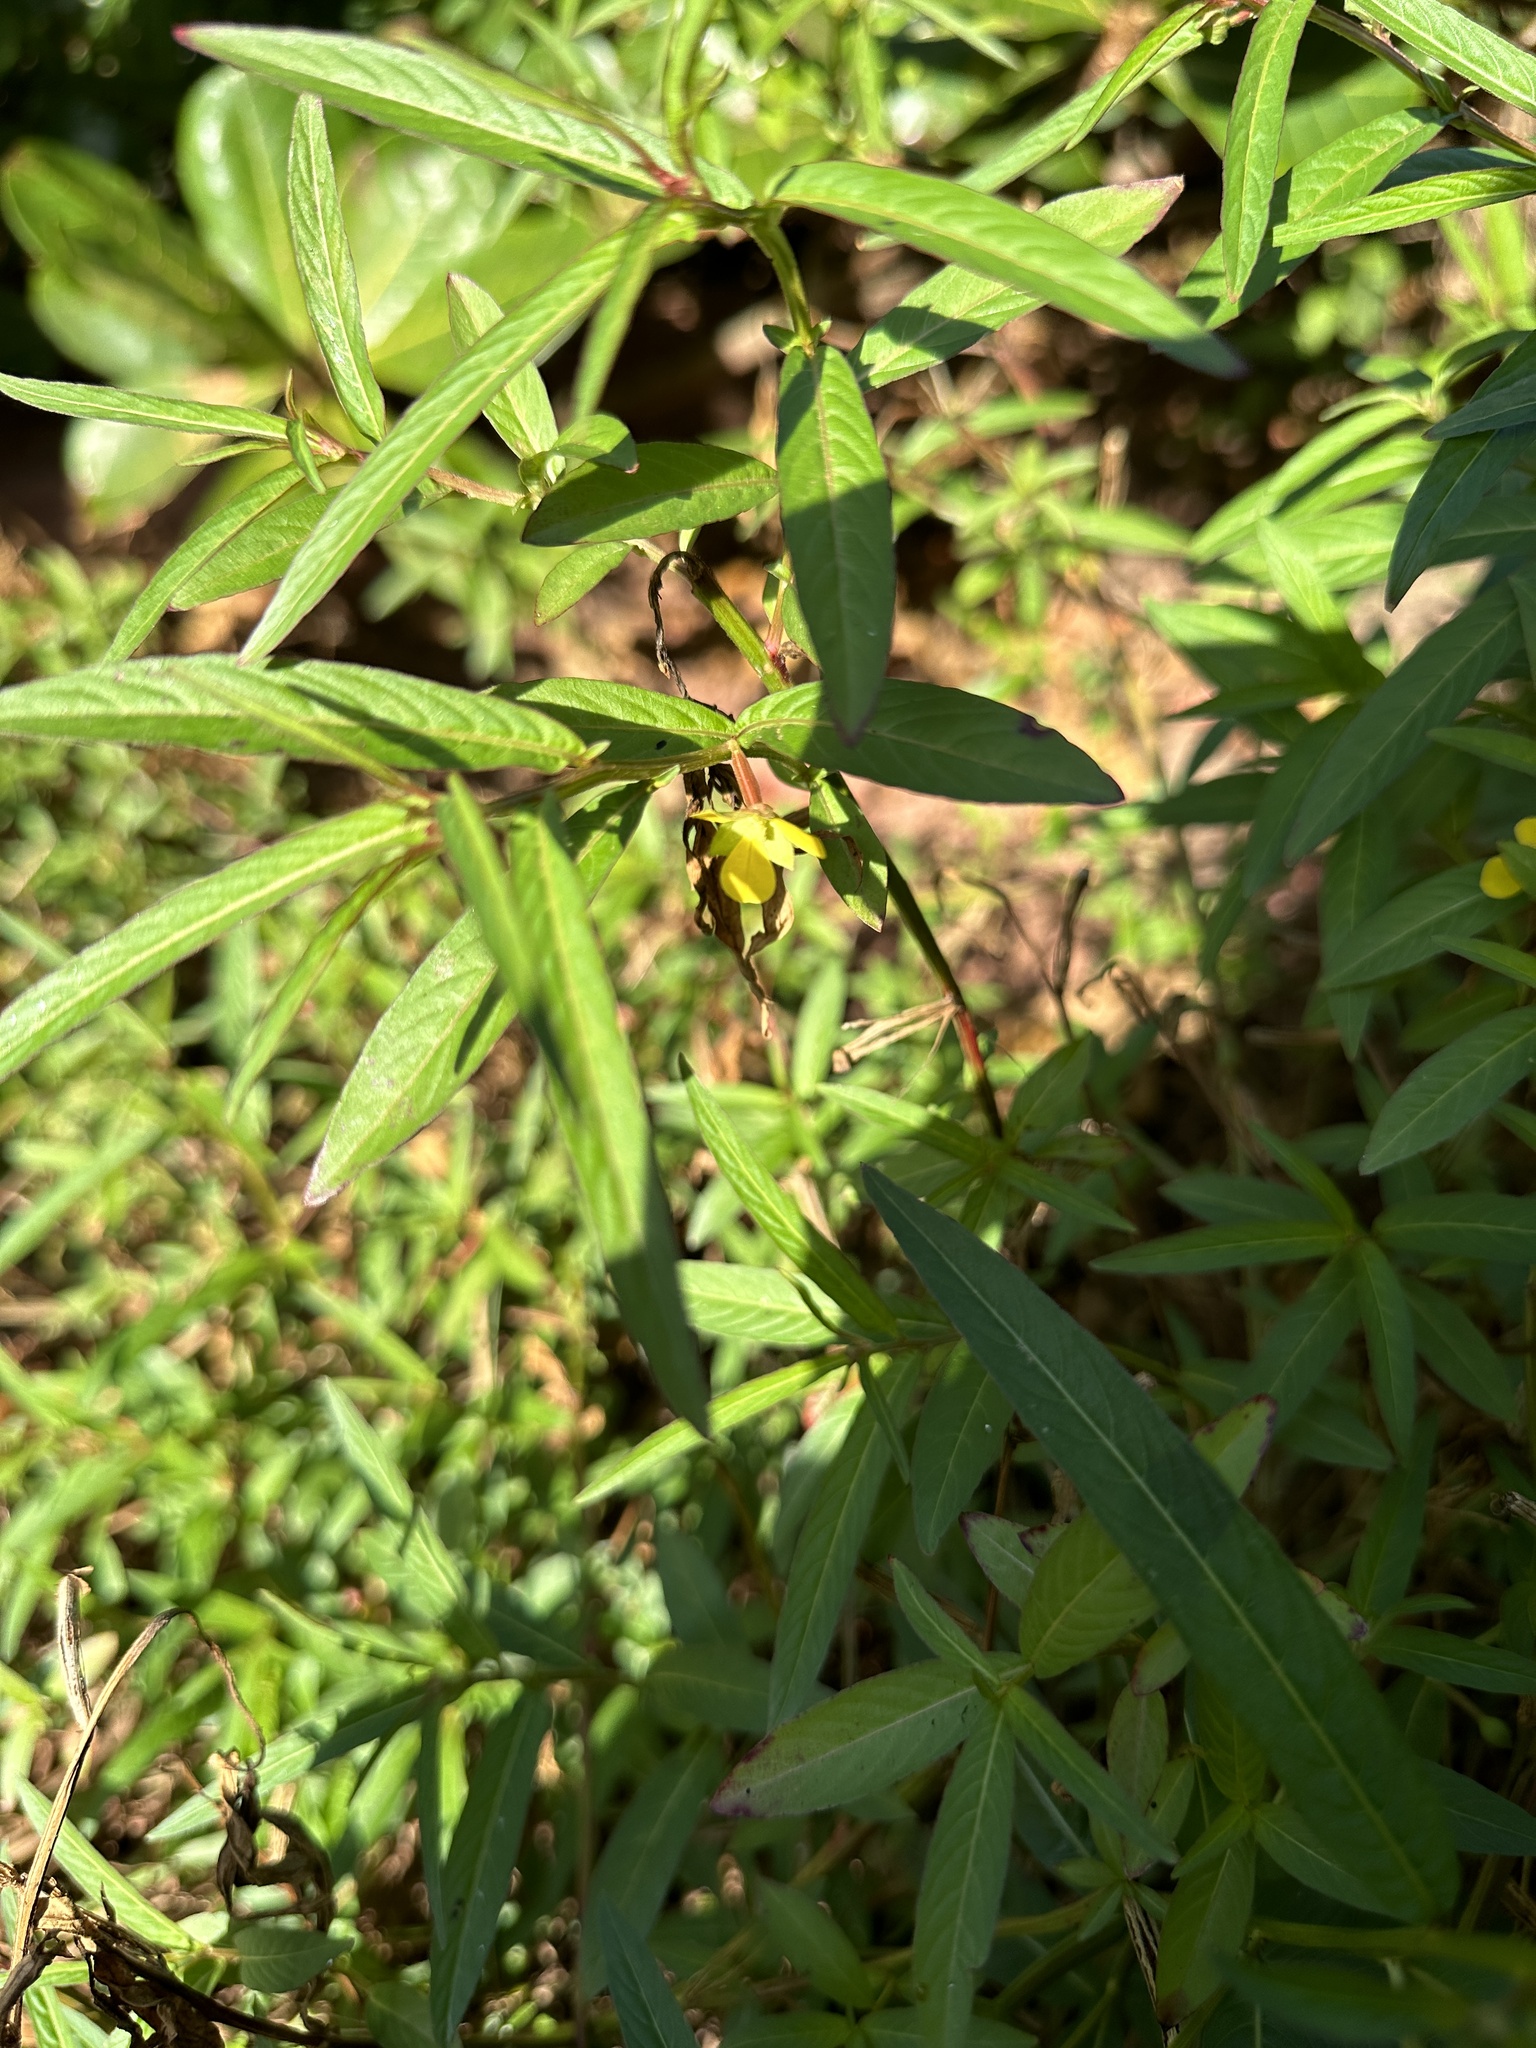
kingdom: Plantae
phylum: Tracheophyta
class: Magnoliopsida
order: Myrtales
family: Onagraceae
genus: Ludwigia
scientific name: Ludwigia octovalvis
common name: Water-primrose
